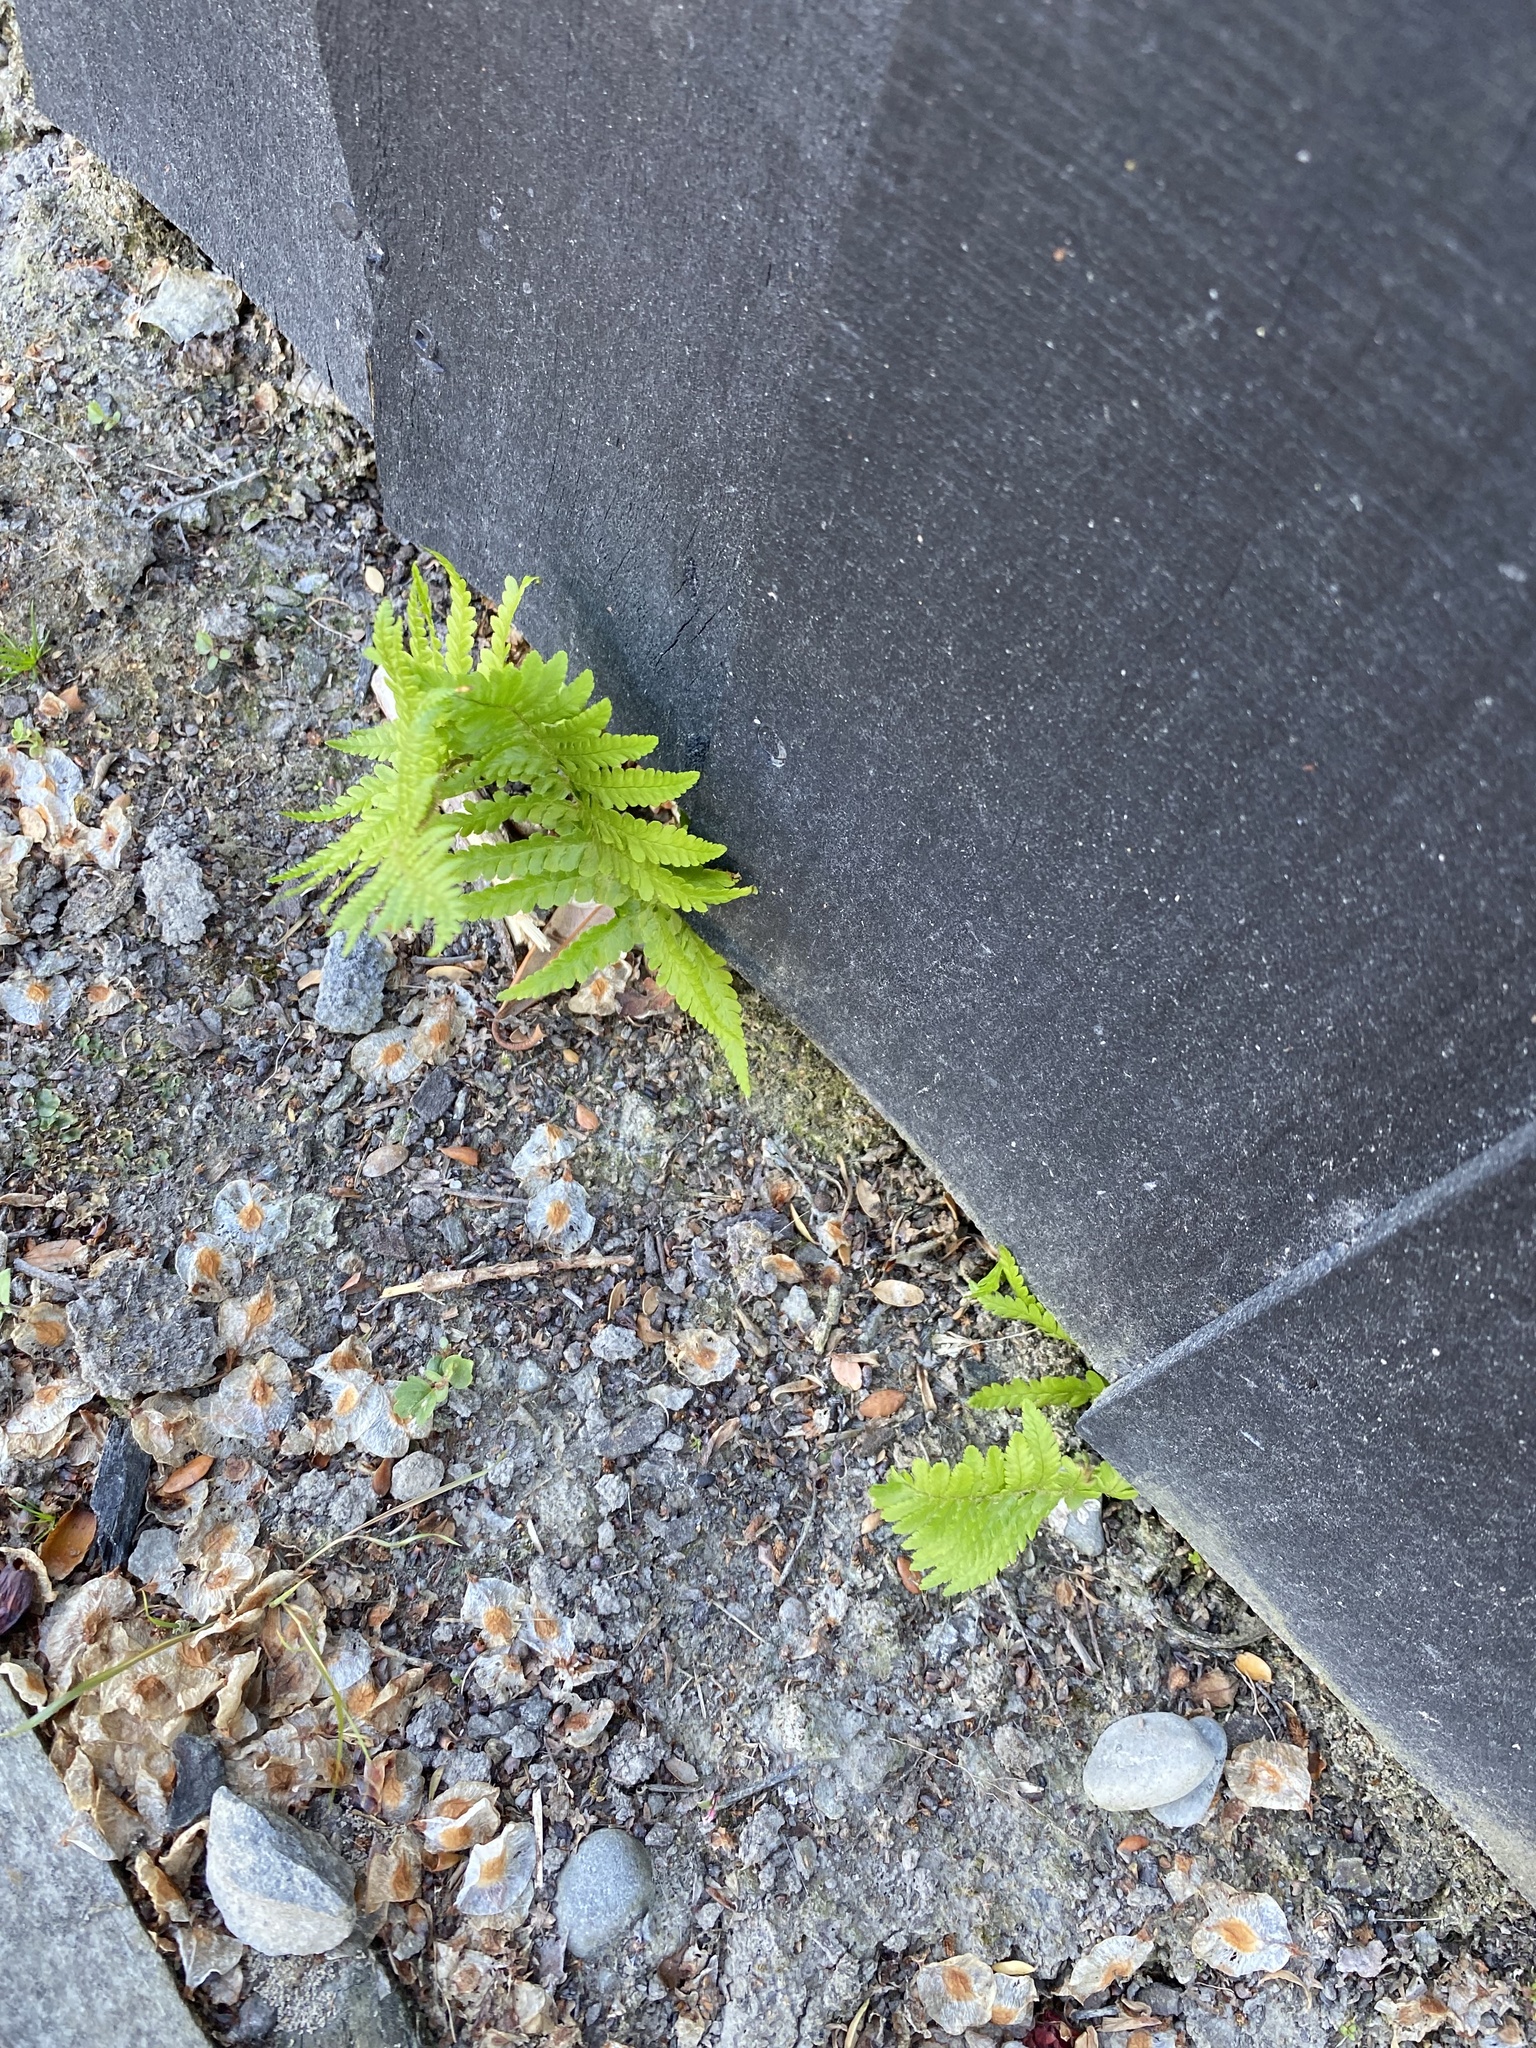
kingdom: Plantae
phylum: Tracheophyta
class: Polypodiopsida
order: Polypodiales
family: Dryopteridaceae
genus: Dryopteris
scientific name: Dryopteris filix-mas
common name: Male fern
